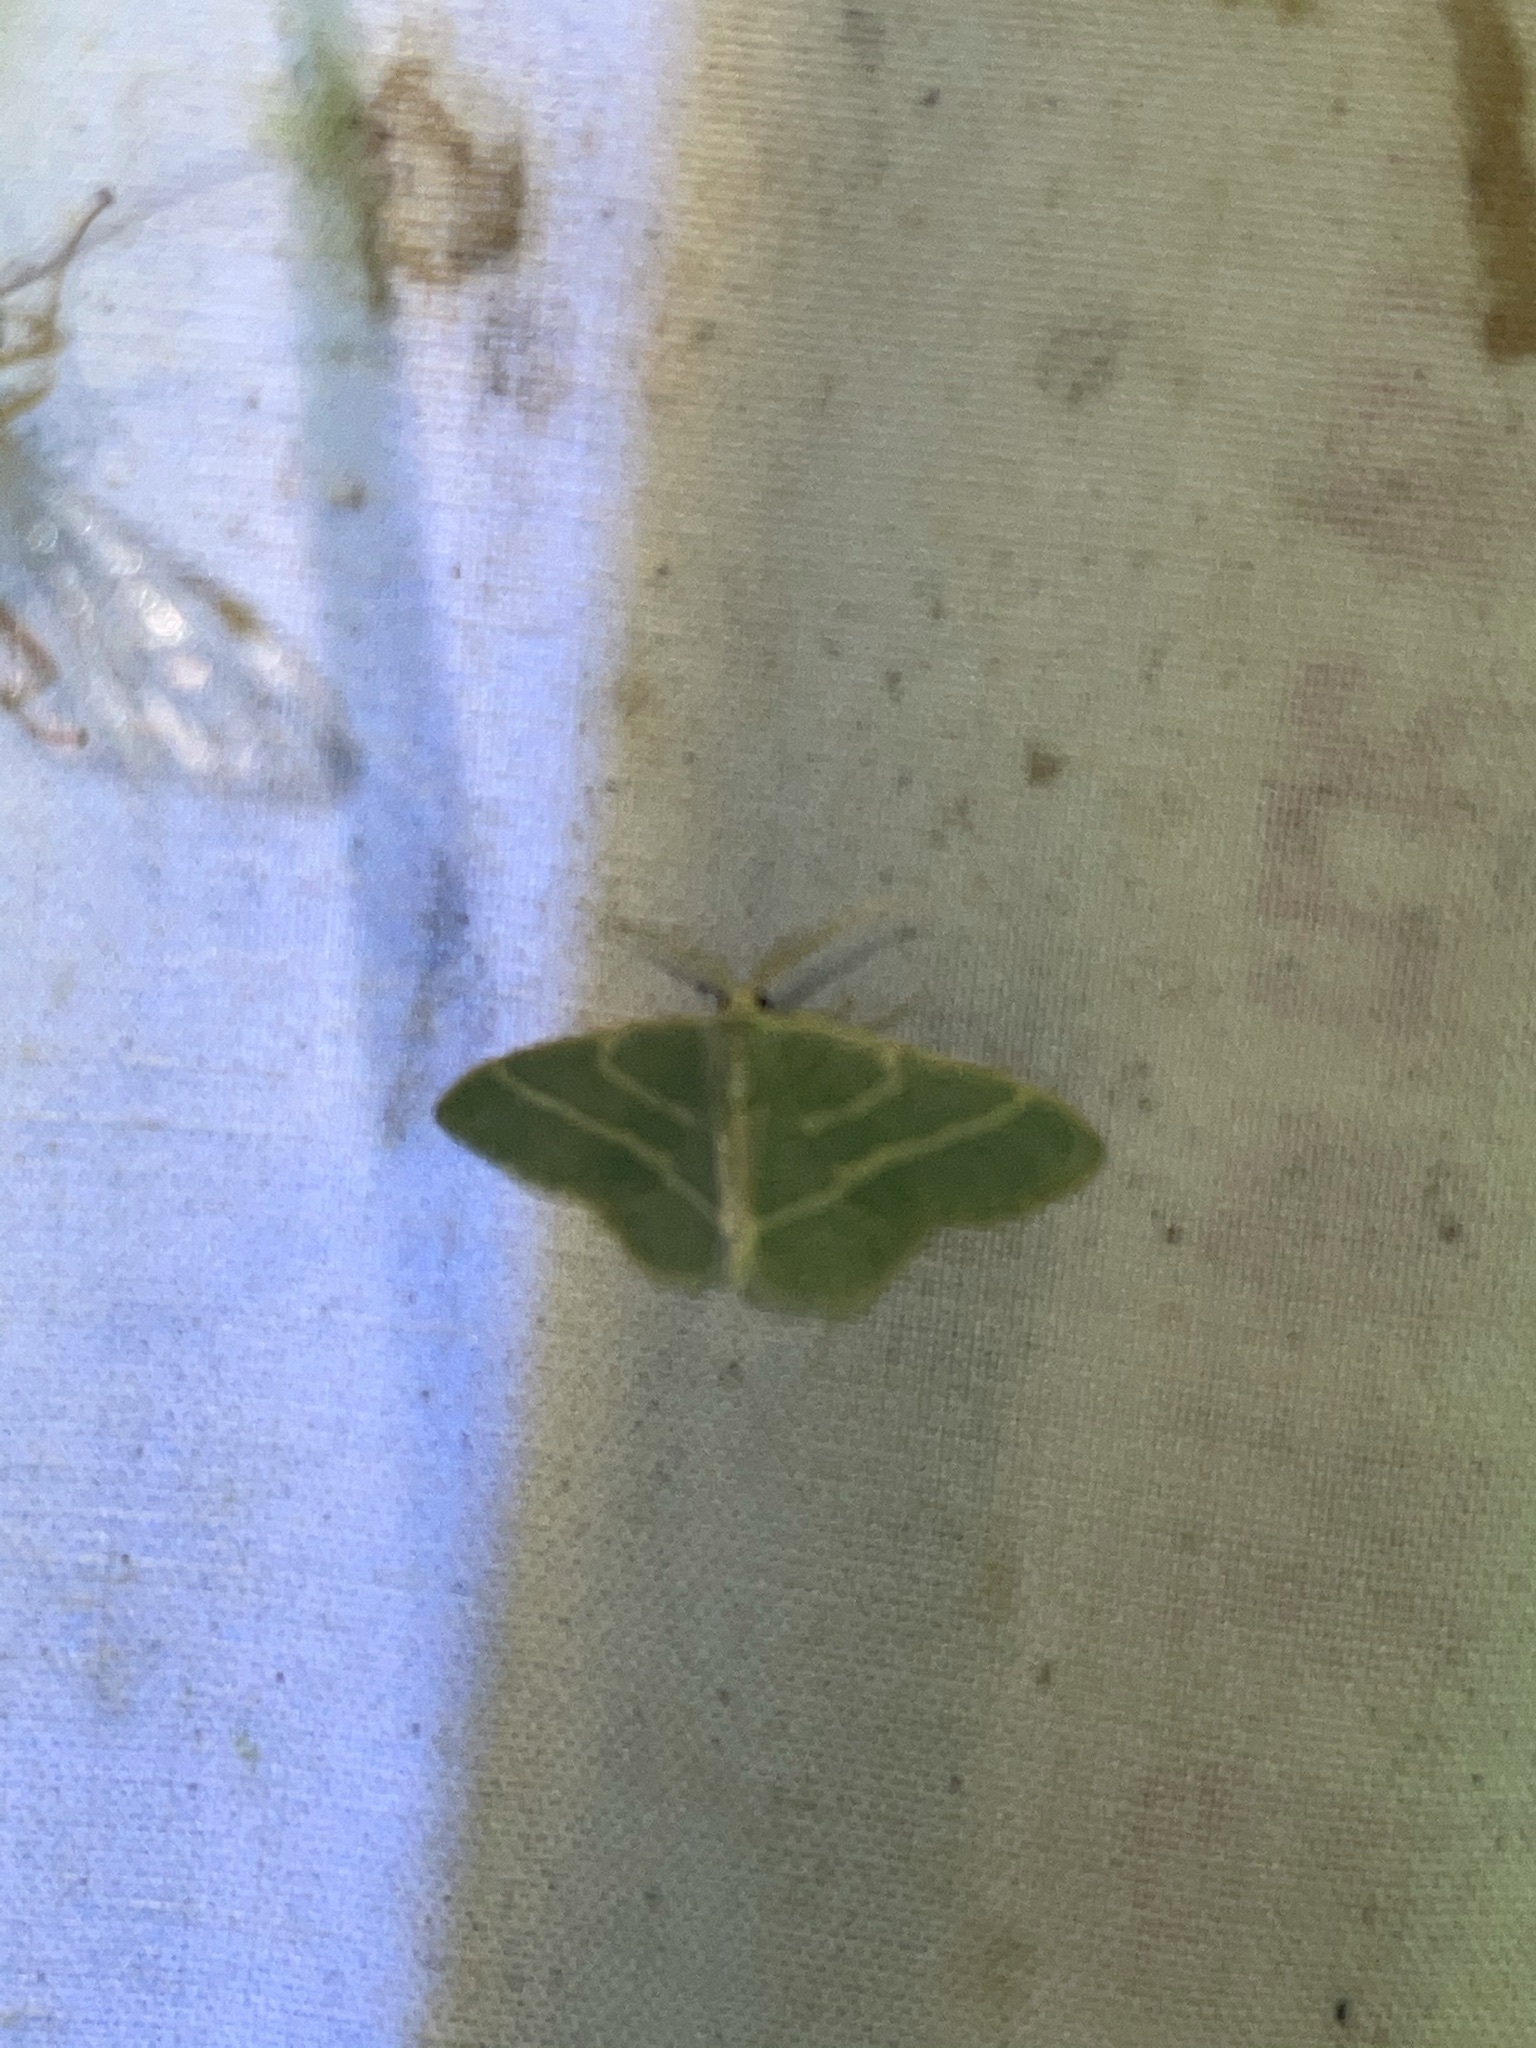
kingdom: Animalia
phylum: Arthropoda
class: Insecta
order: Lepidoptera
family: Geometridae
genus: Chlorochlamys
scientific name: Chlorochlamys chloroleucaria
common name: Blackberry looper
